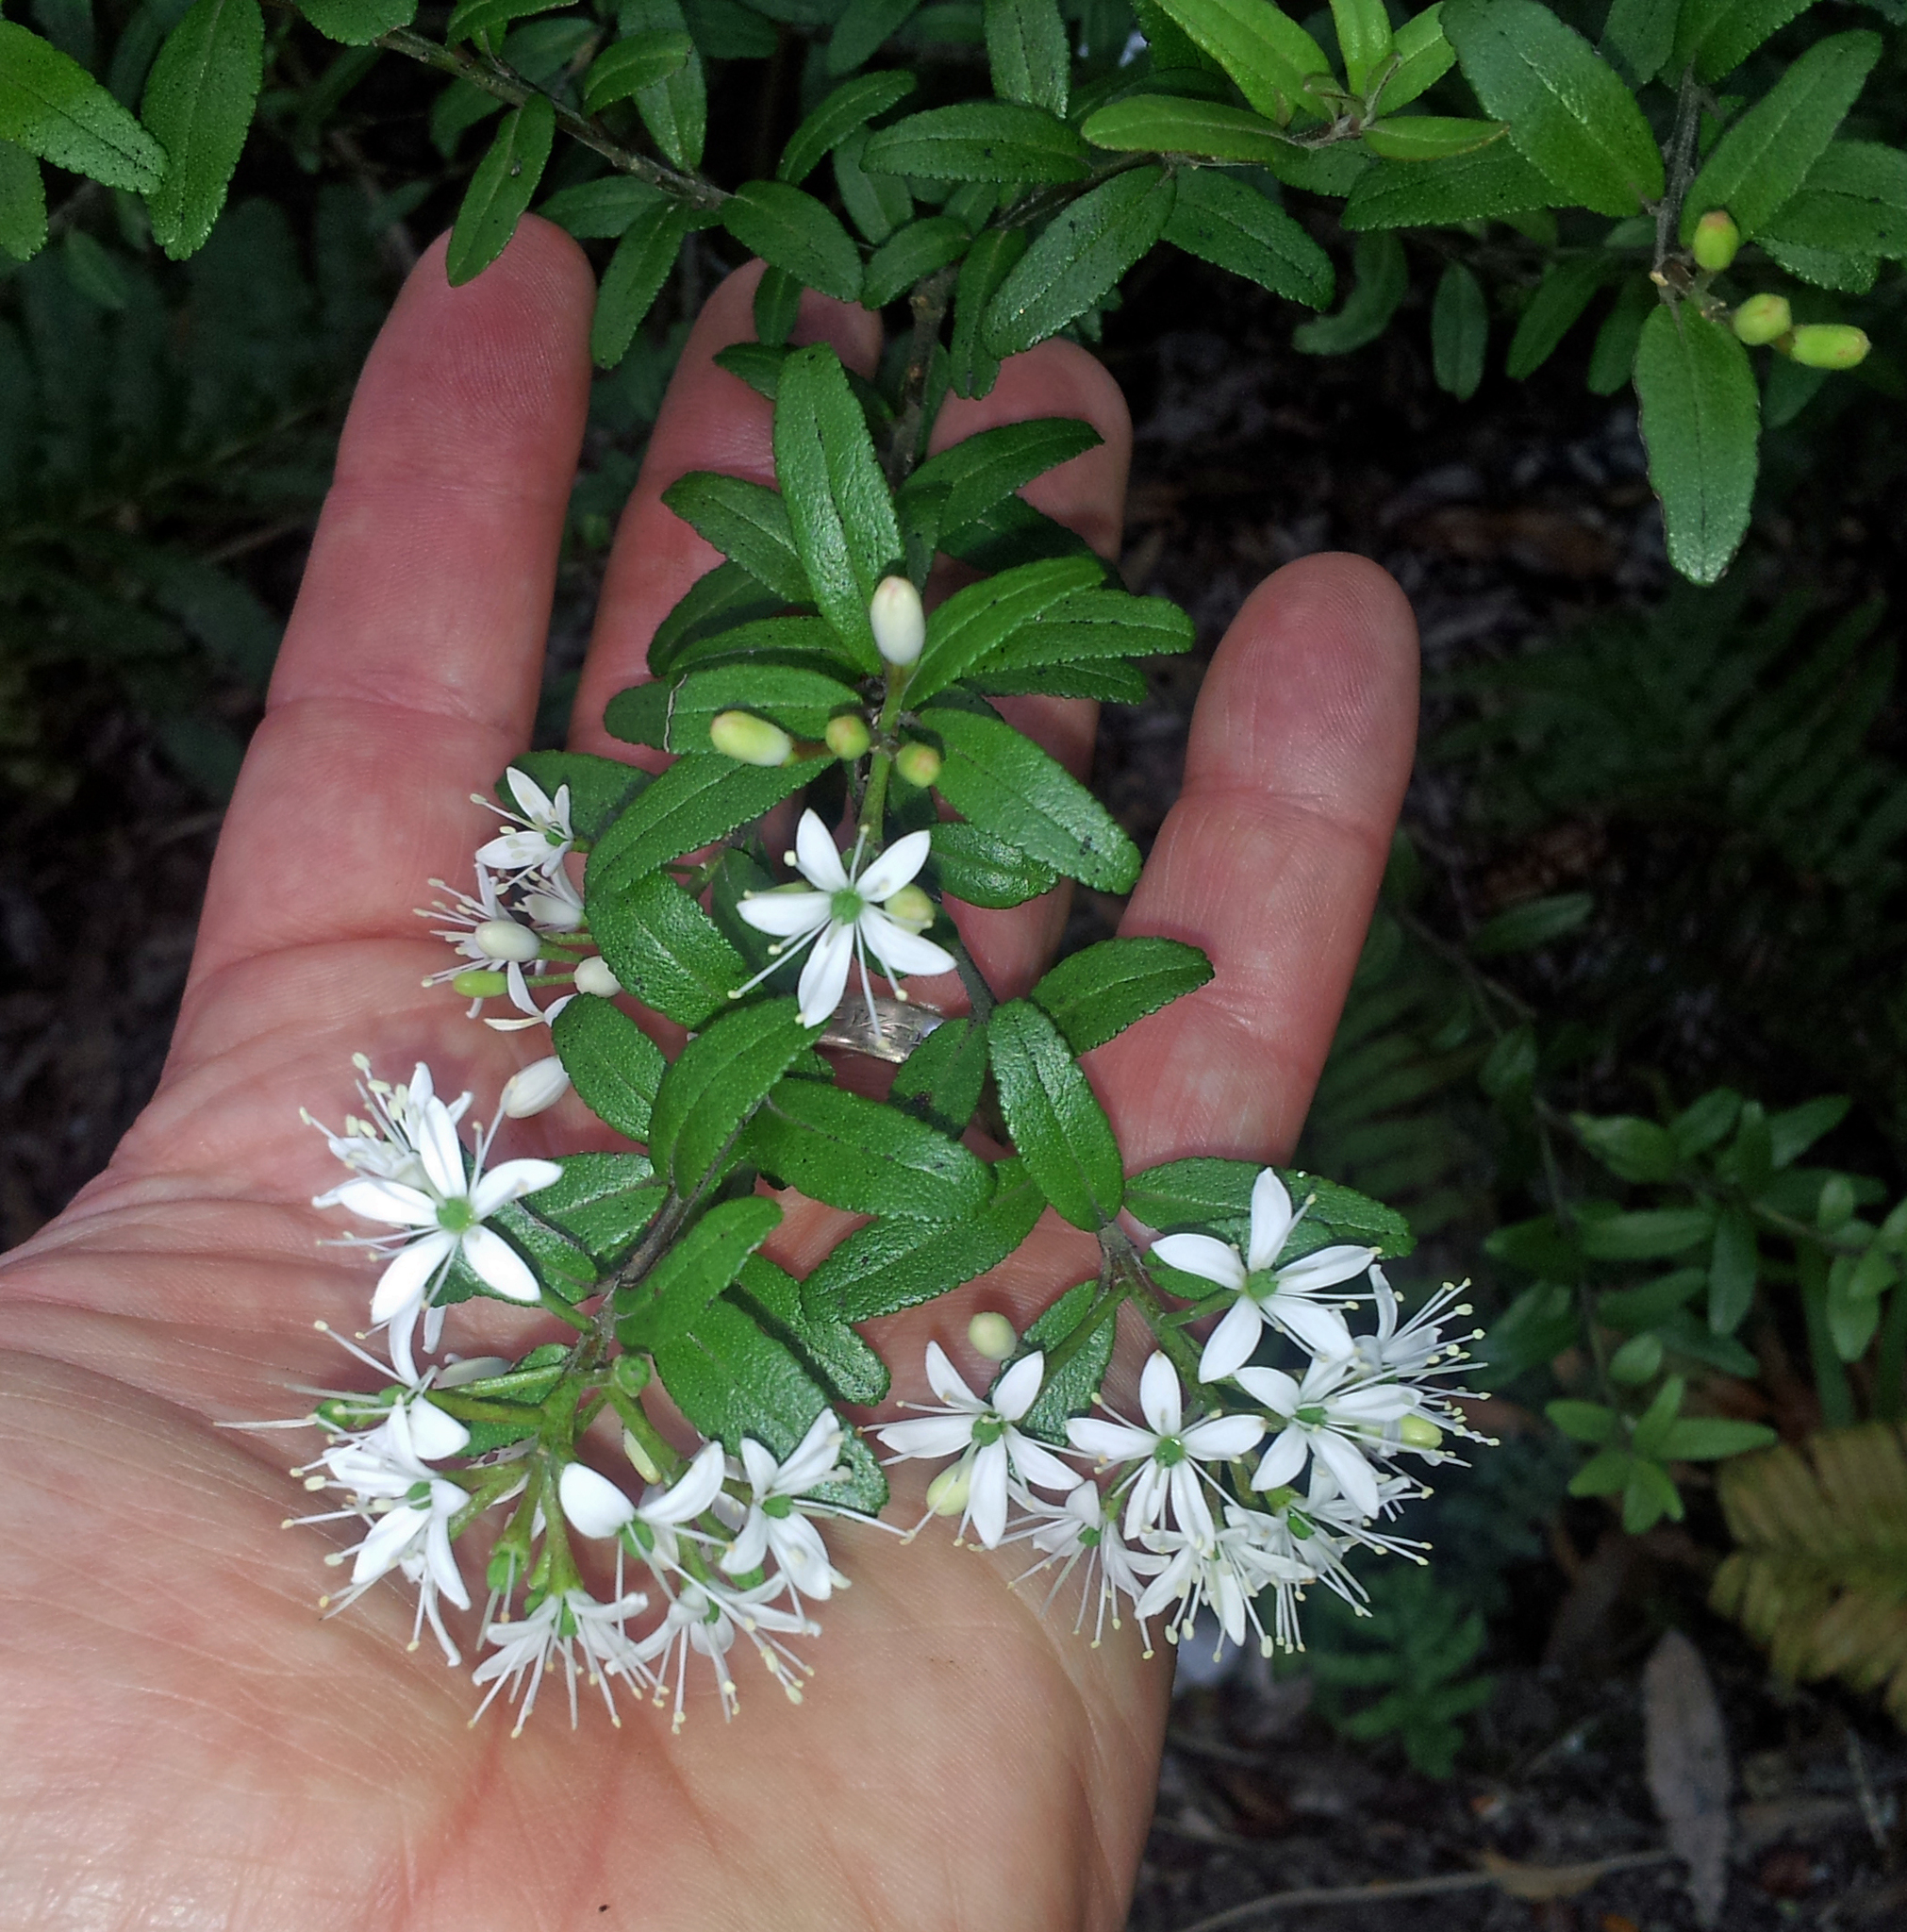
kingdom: Plantae
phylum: Tracheophyta
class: Magnoliopsida
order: Sapindales
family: Rutaceae
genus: Leionema
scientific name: Leionema nudum
